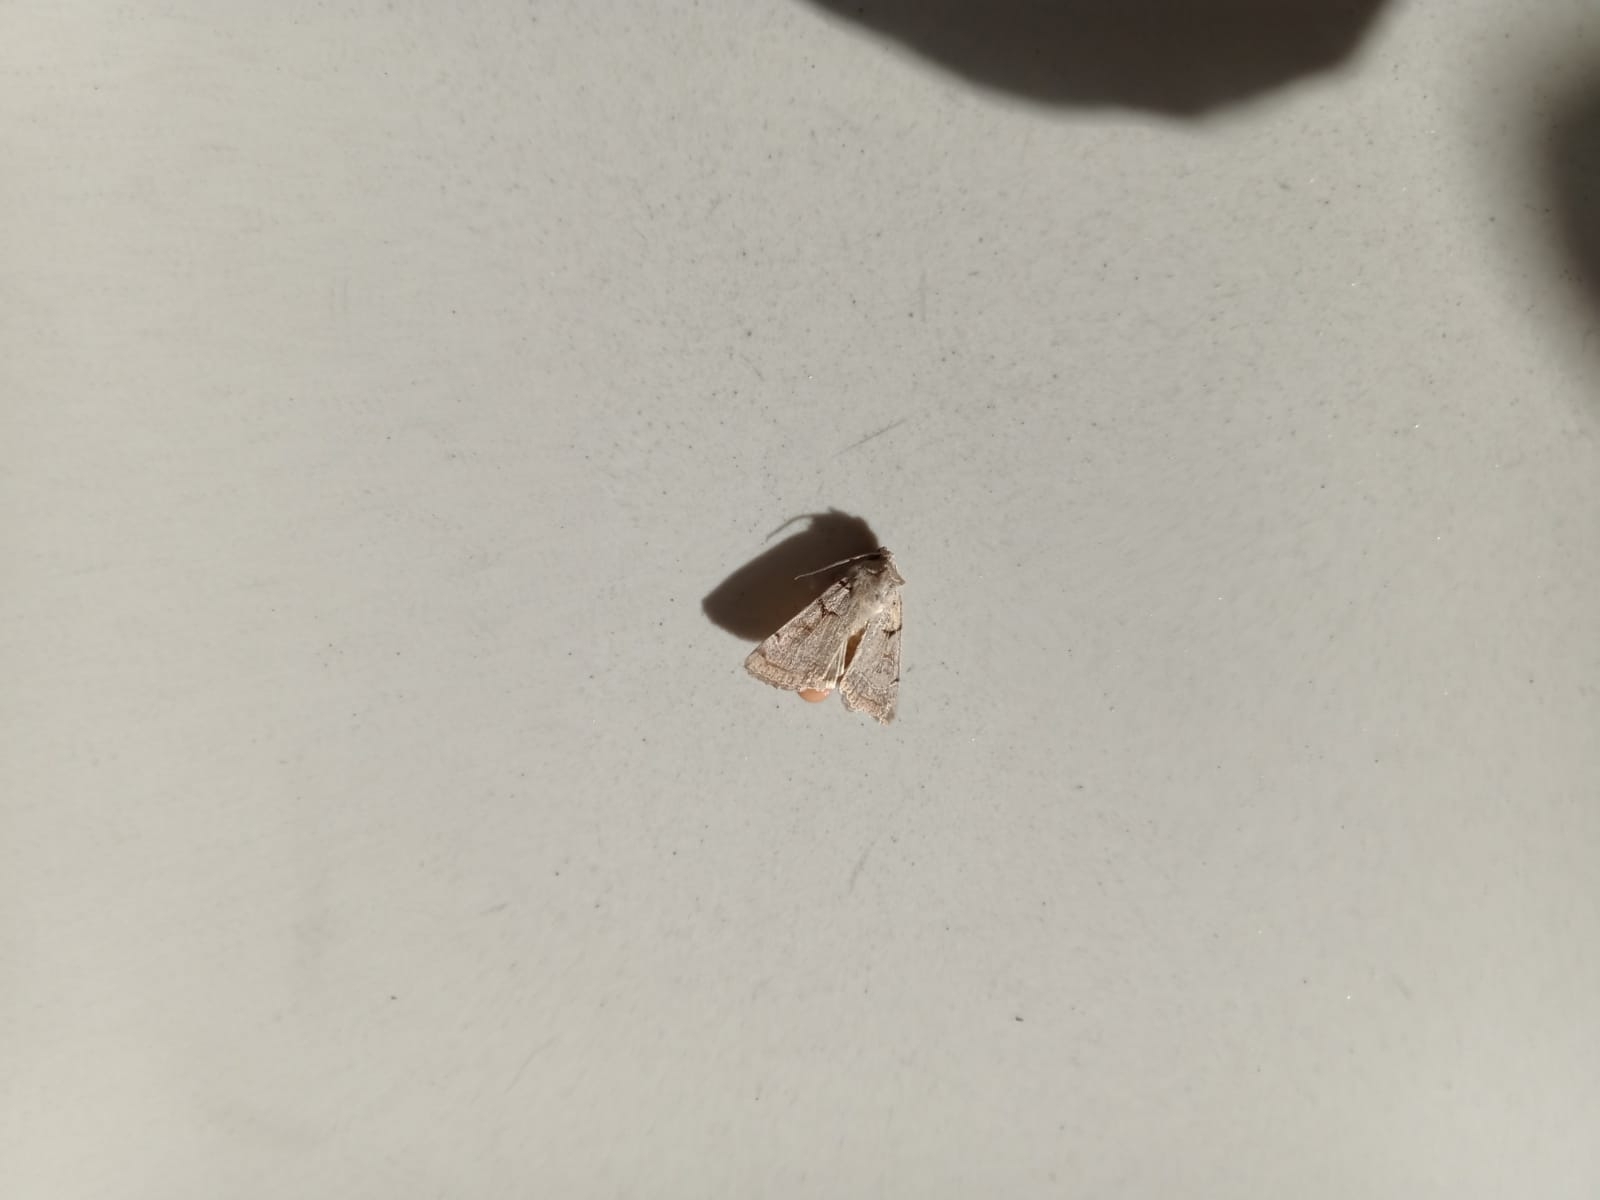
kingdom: Animalia
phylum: Arthropoda
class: Insecta
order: Lepidoptera
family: Noctuidae
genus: Eugnorisma
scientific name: Eugnorisma pontica
